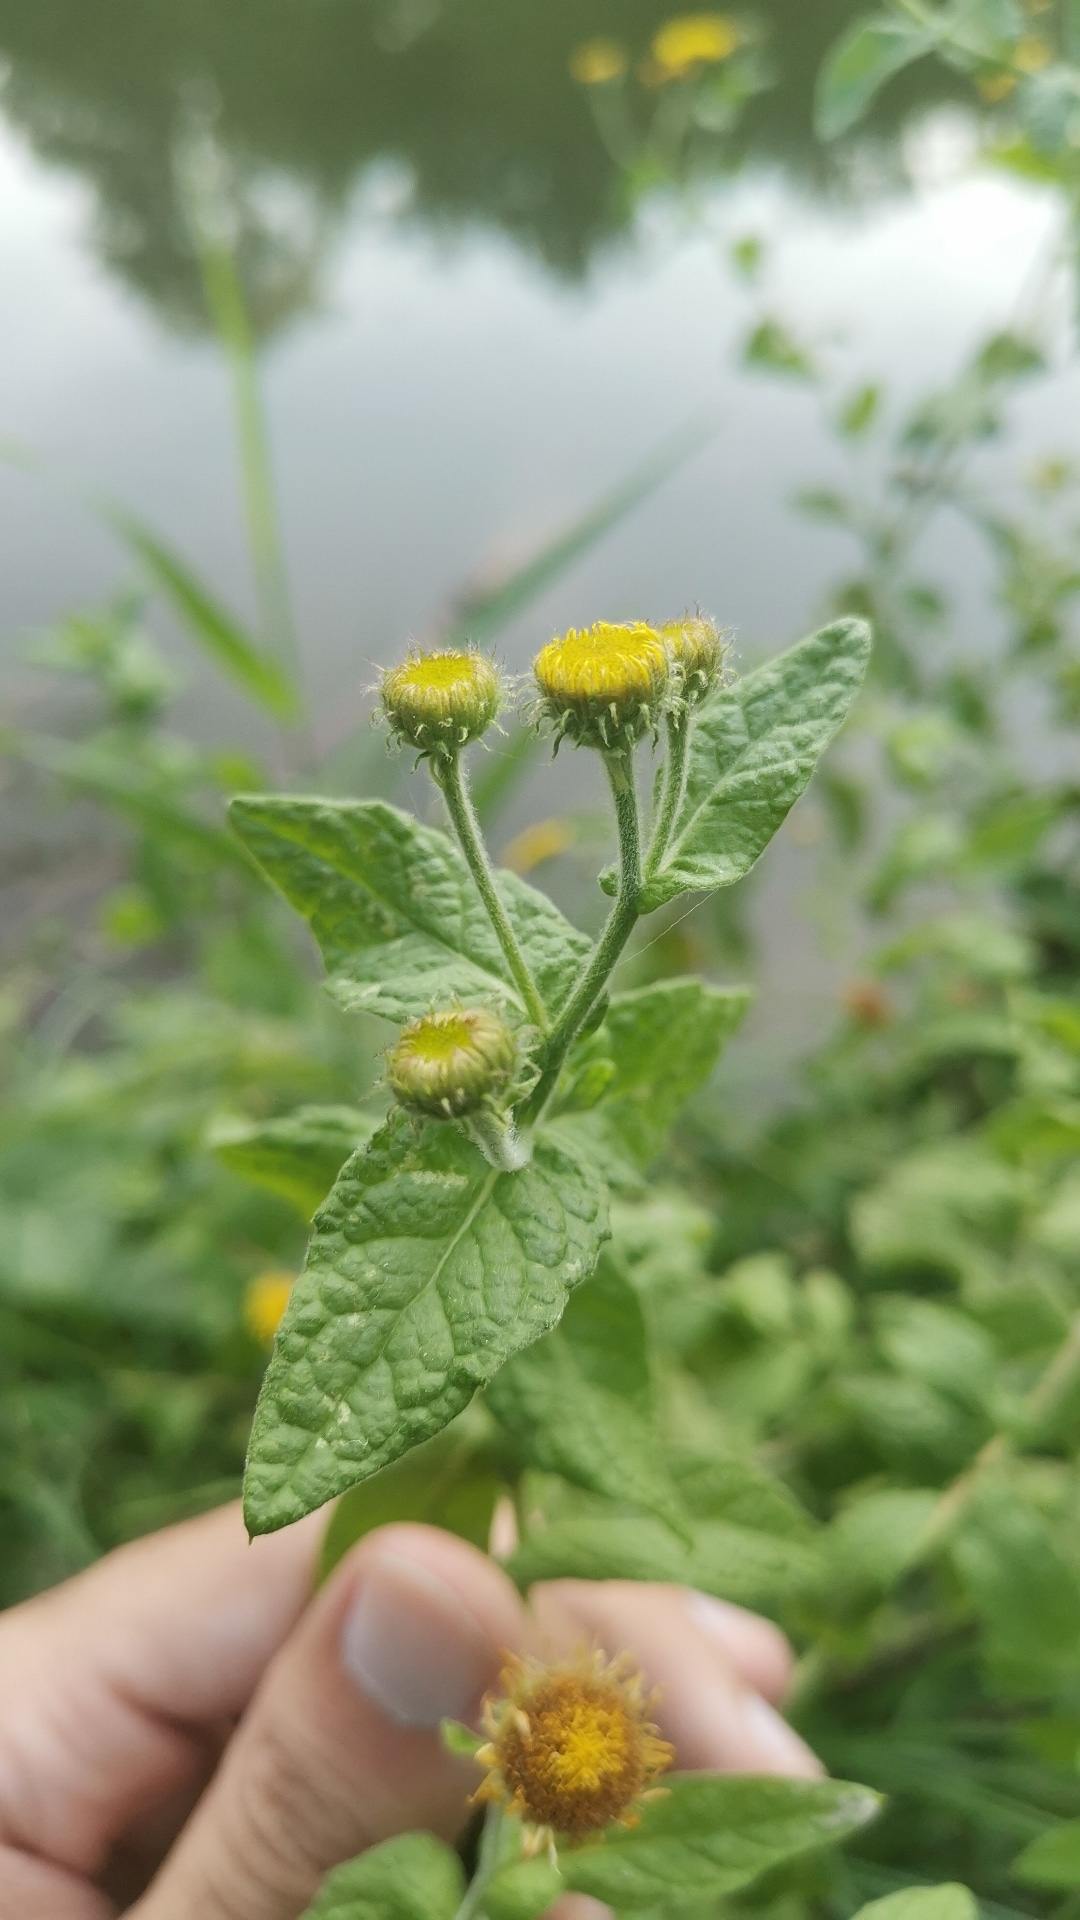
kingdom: Plantae
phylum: Tracheophyta
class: Magnoliopsida
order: Asterales
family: Asteraceae
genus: Pulicaria
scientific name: Pulicaria dysenterica
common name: Common fleabane
